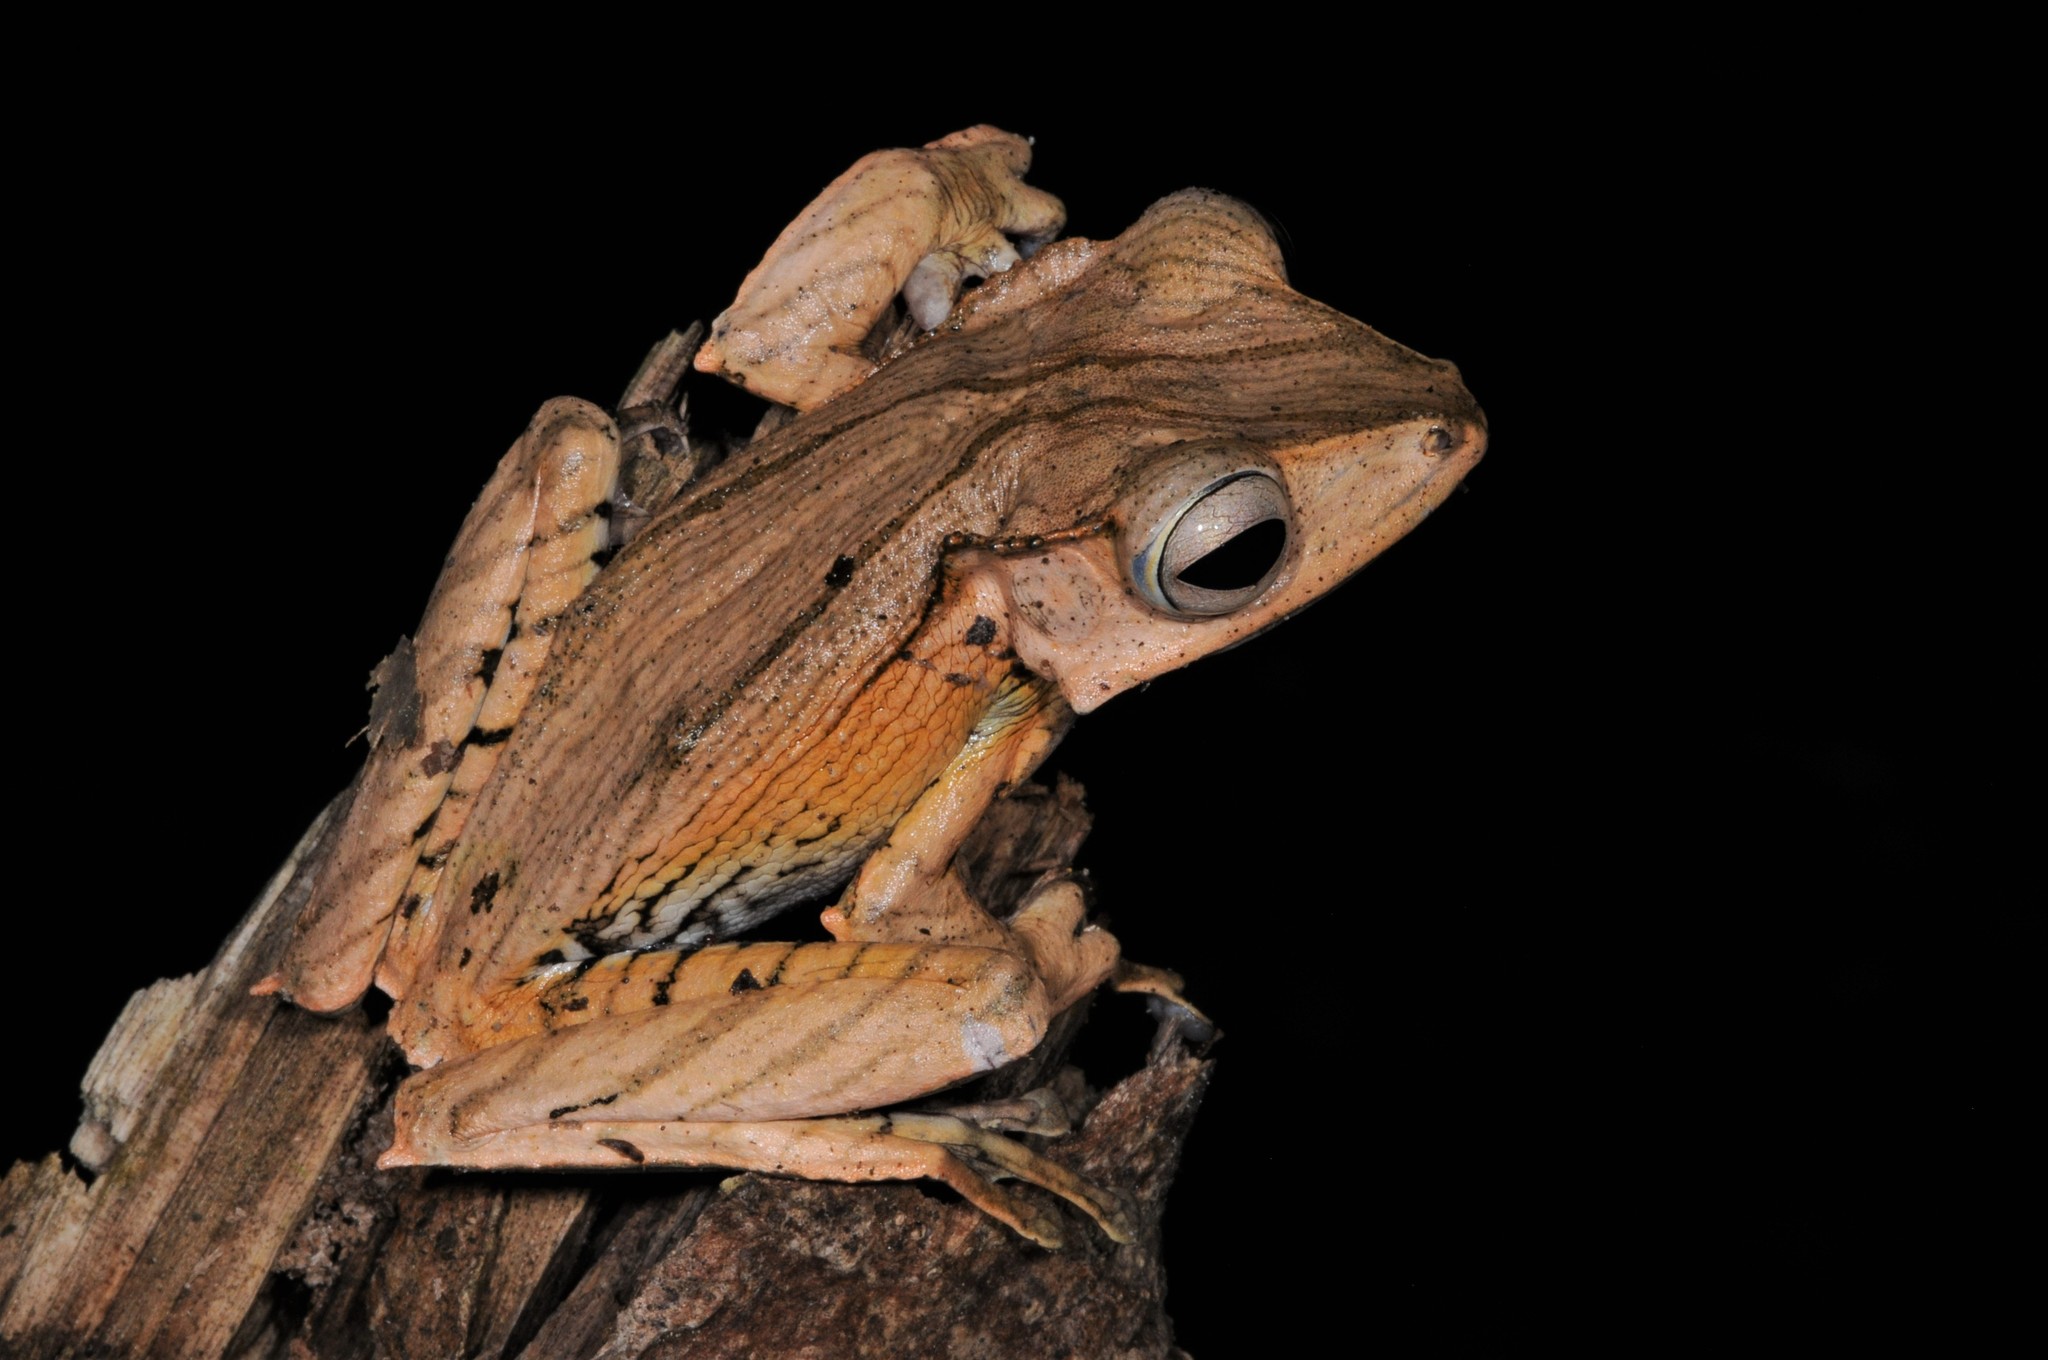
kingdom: Animalia
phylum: Chordata
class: Amphibia
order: Anura
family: Rhacophoridae
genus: Polypedates
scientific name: Polypedates otilophus
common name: File-eared tree frog
